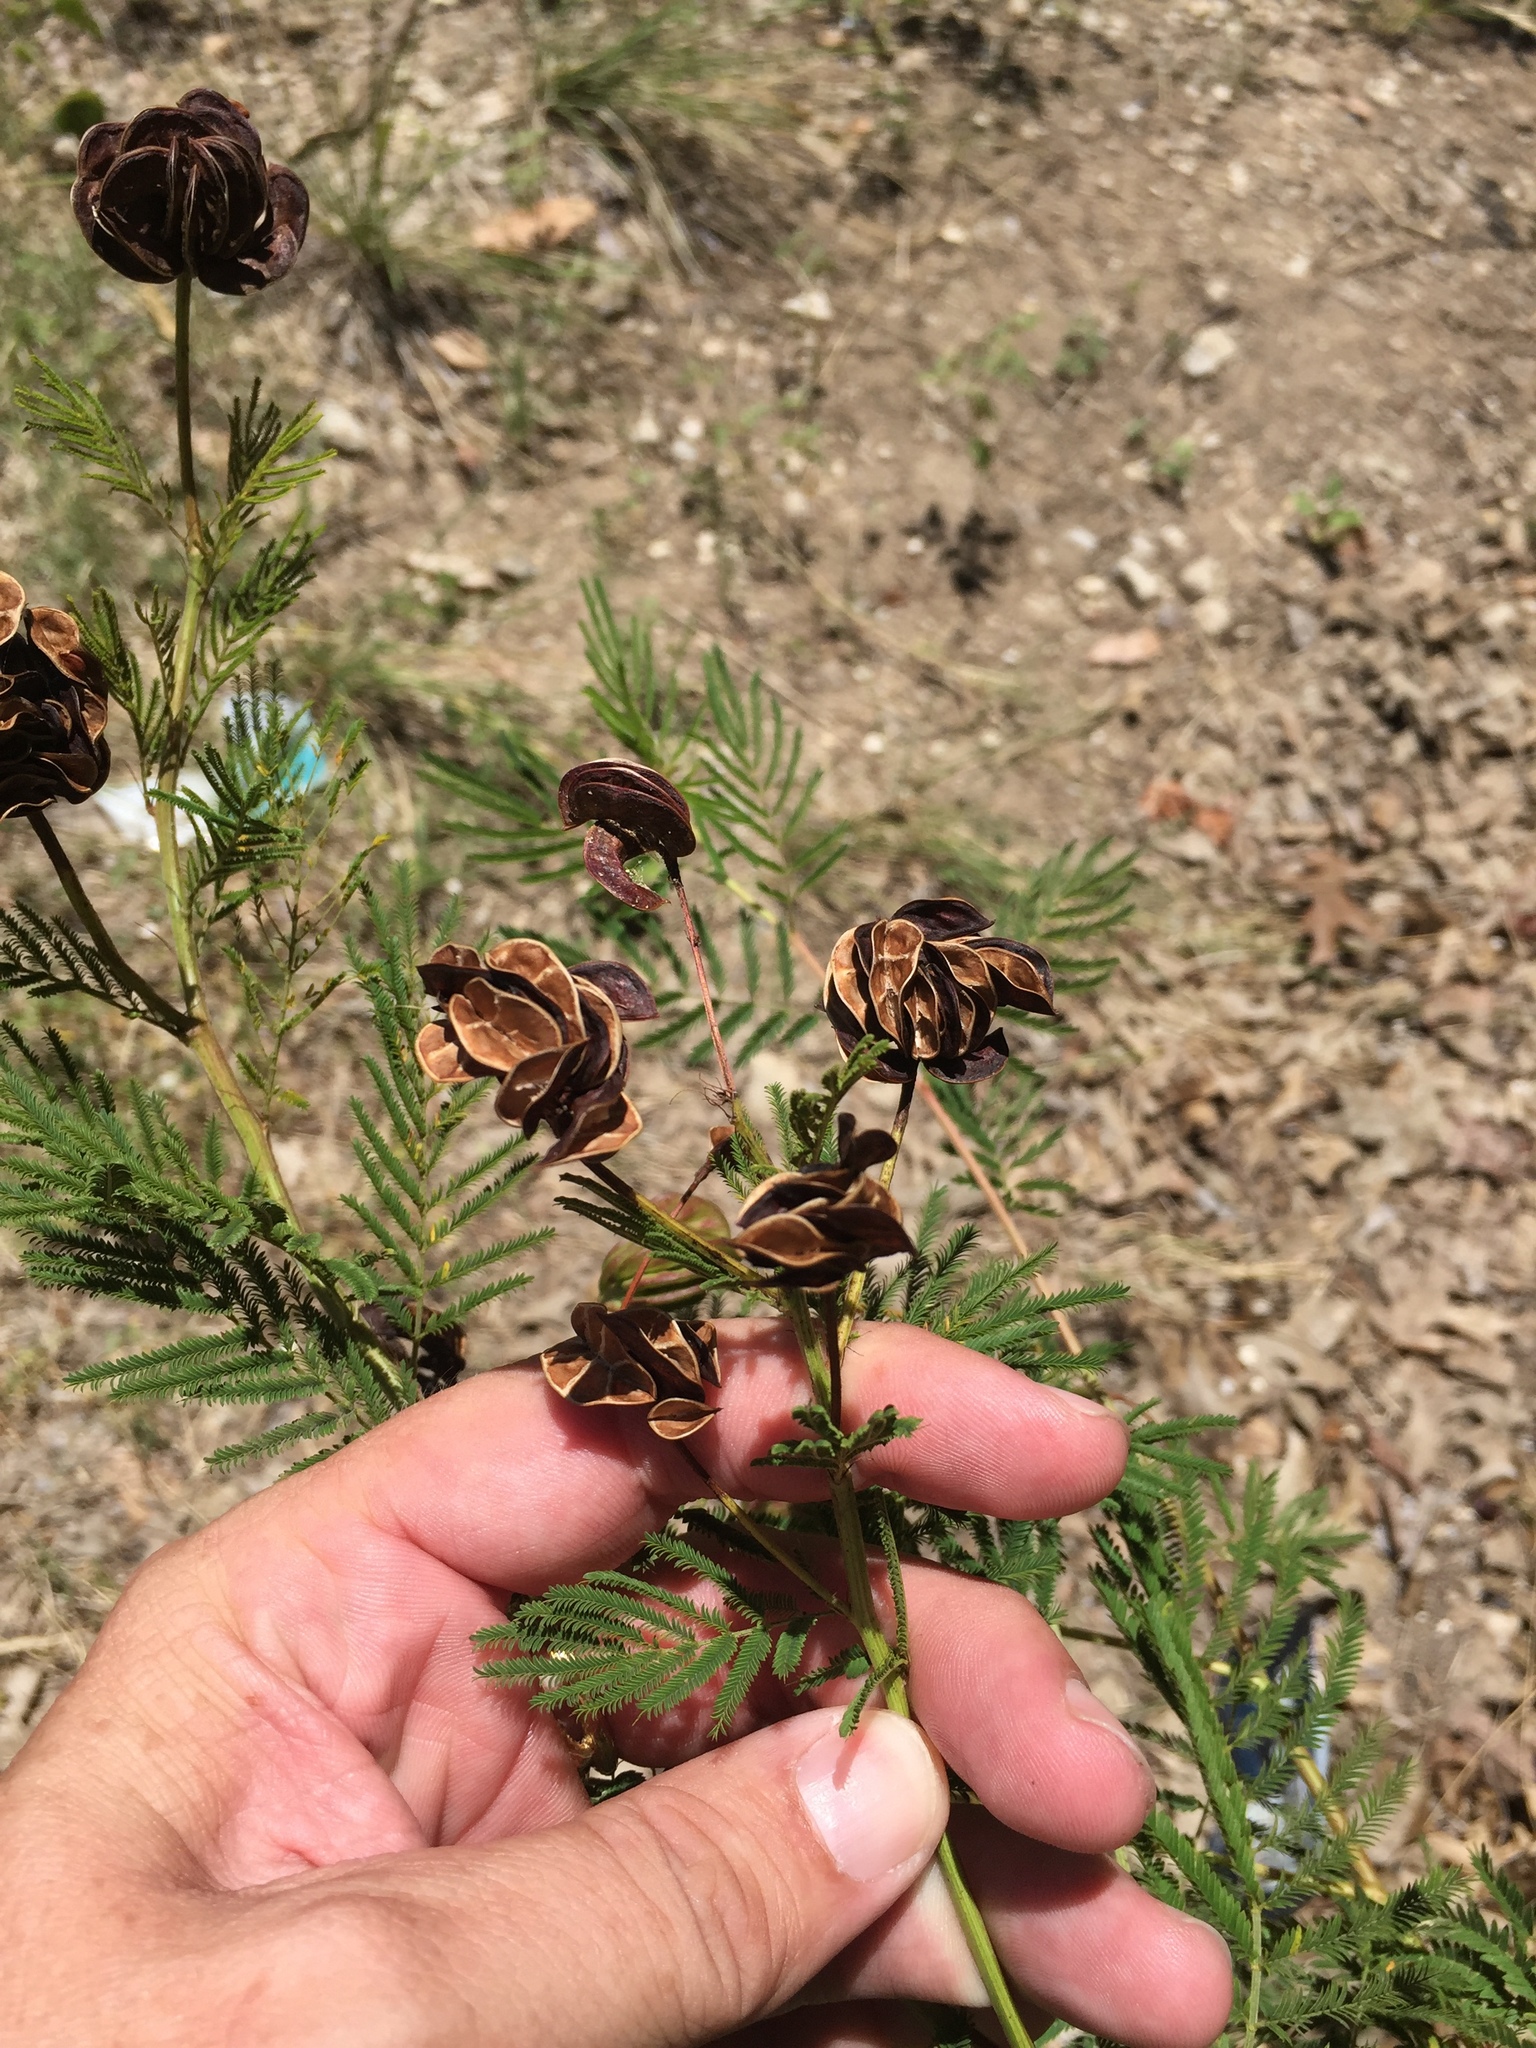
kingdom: Plantae
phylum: Tracheophyta
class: Magnoliopsida
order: Fabales
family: Fabaceae
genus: Desmanthus
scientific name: Desmanthus illinoensis
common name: Illinois bundle-flower
